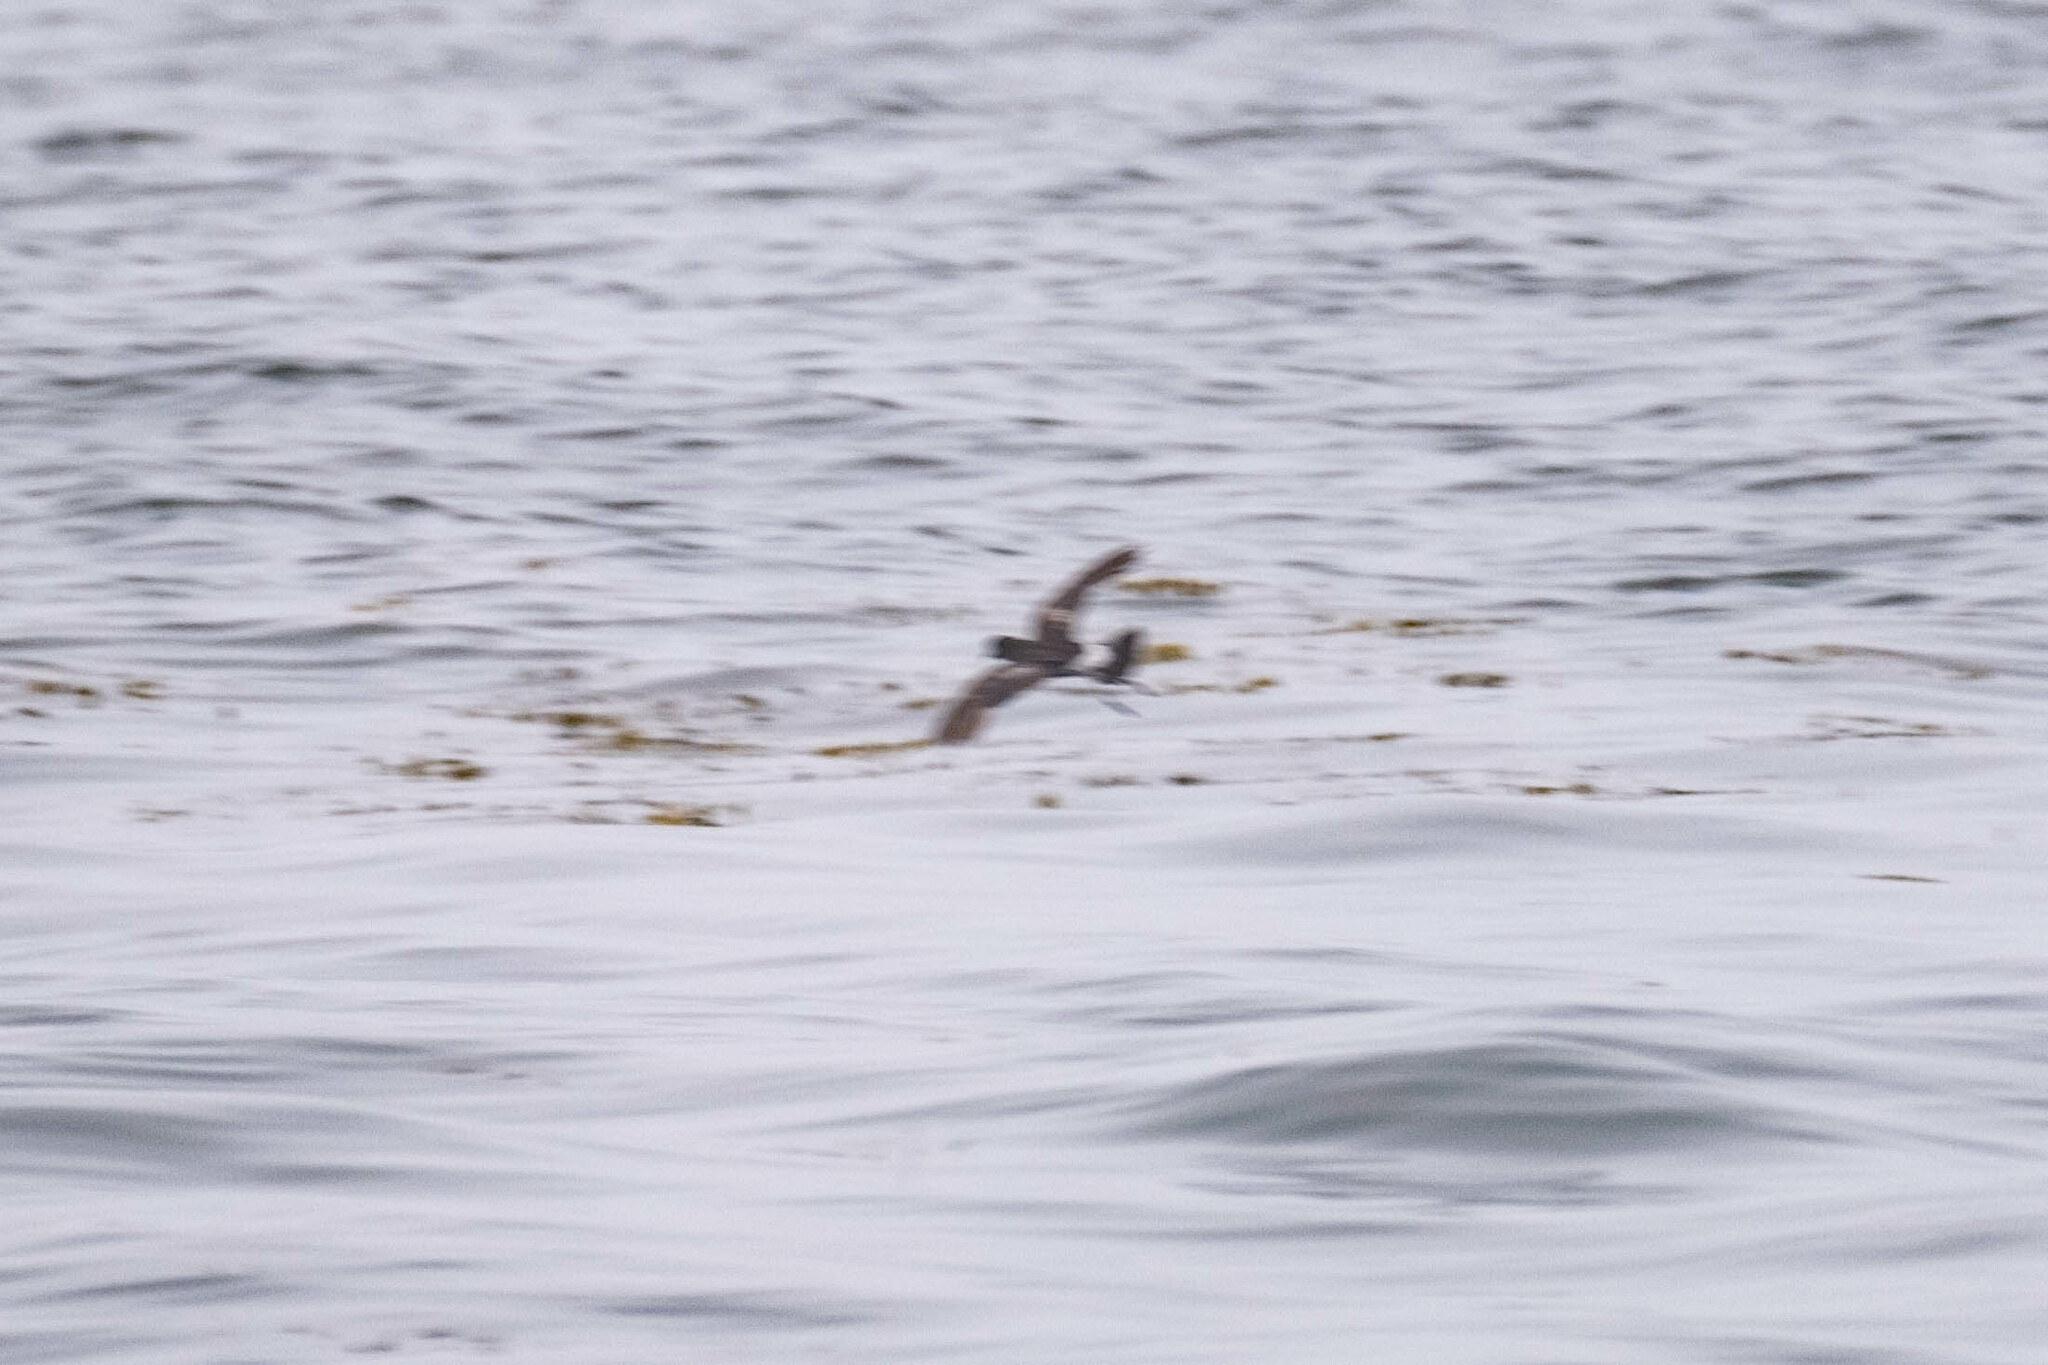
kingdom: Animalia
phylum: Chordata
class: Aves
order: Procellariiformes
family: Hydrobatidae
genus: Oceanites
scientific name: Oceanites oceanicus
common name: Wilson's storm petrel
